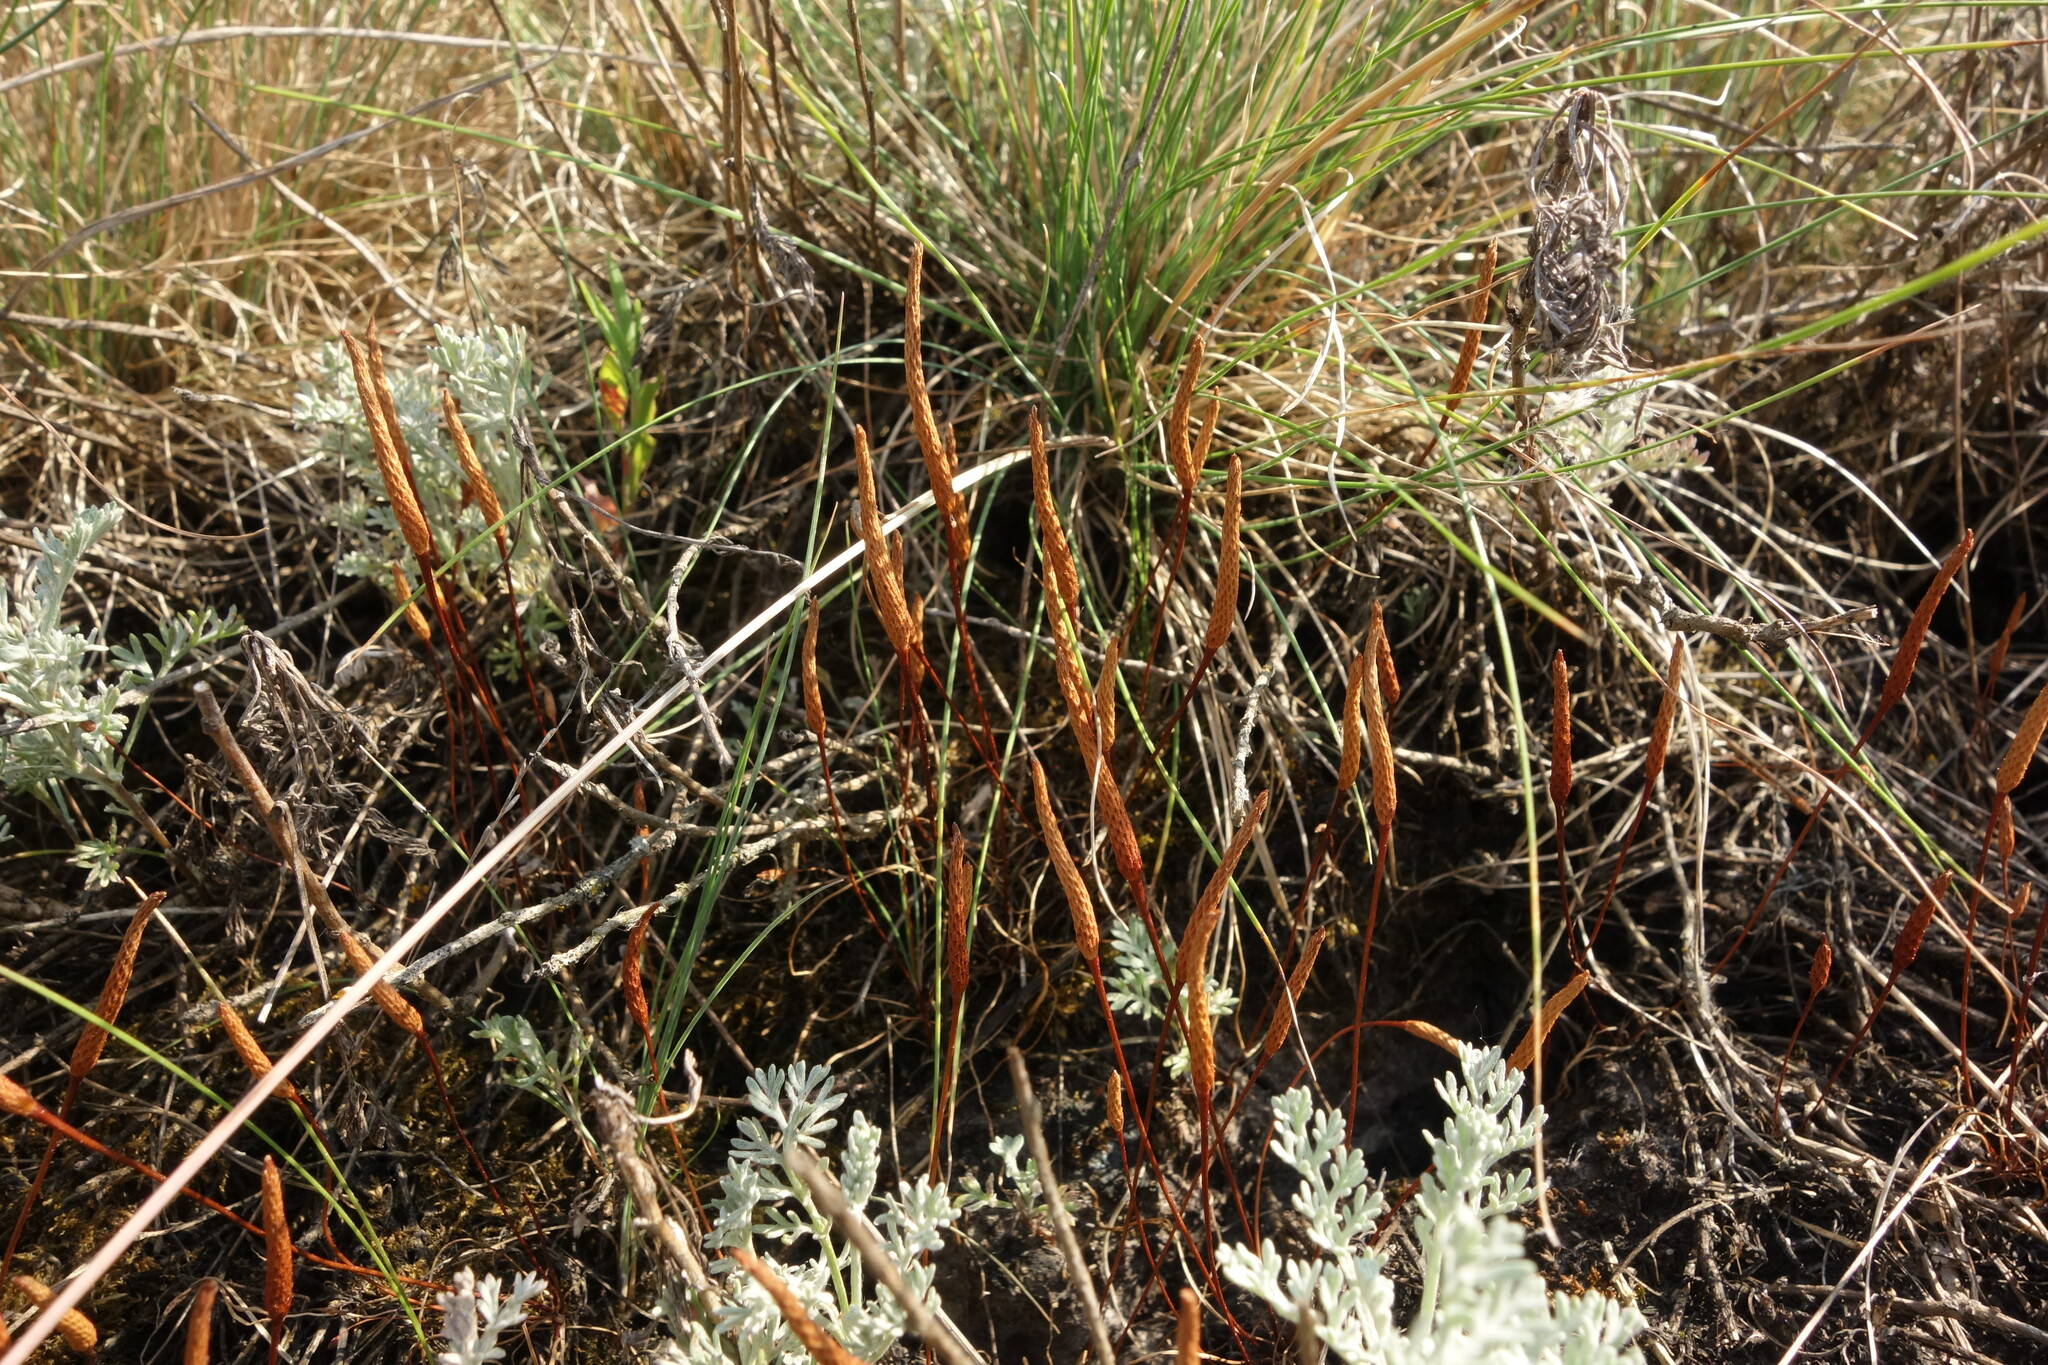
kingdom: Plantae
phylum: Tracheophyta
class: Magnoliopsida
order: Ranunculales
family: Ranunculaceae
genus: Myosurus
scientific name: Myosurus minimus
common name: Mousetail
